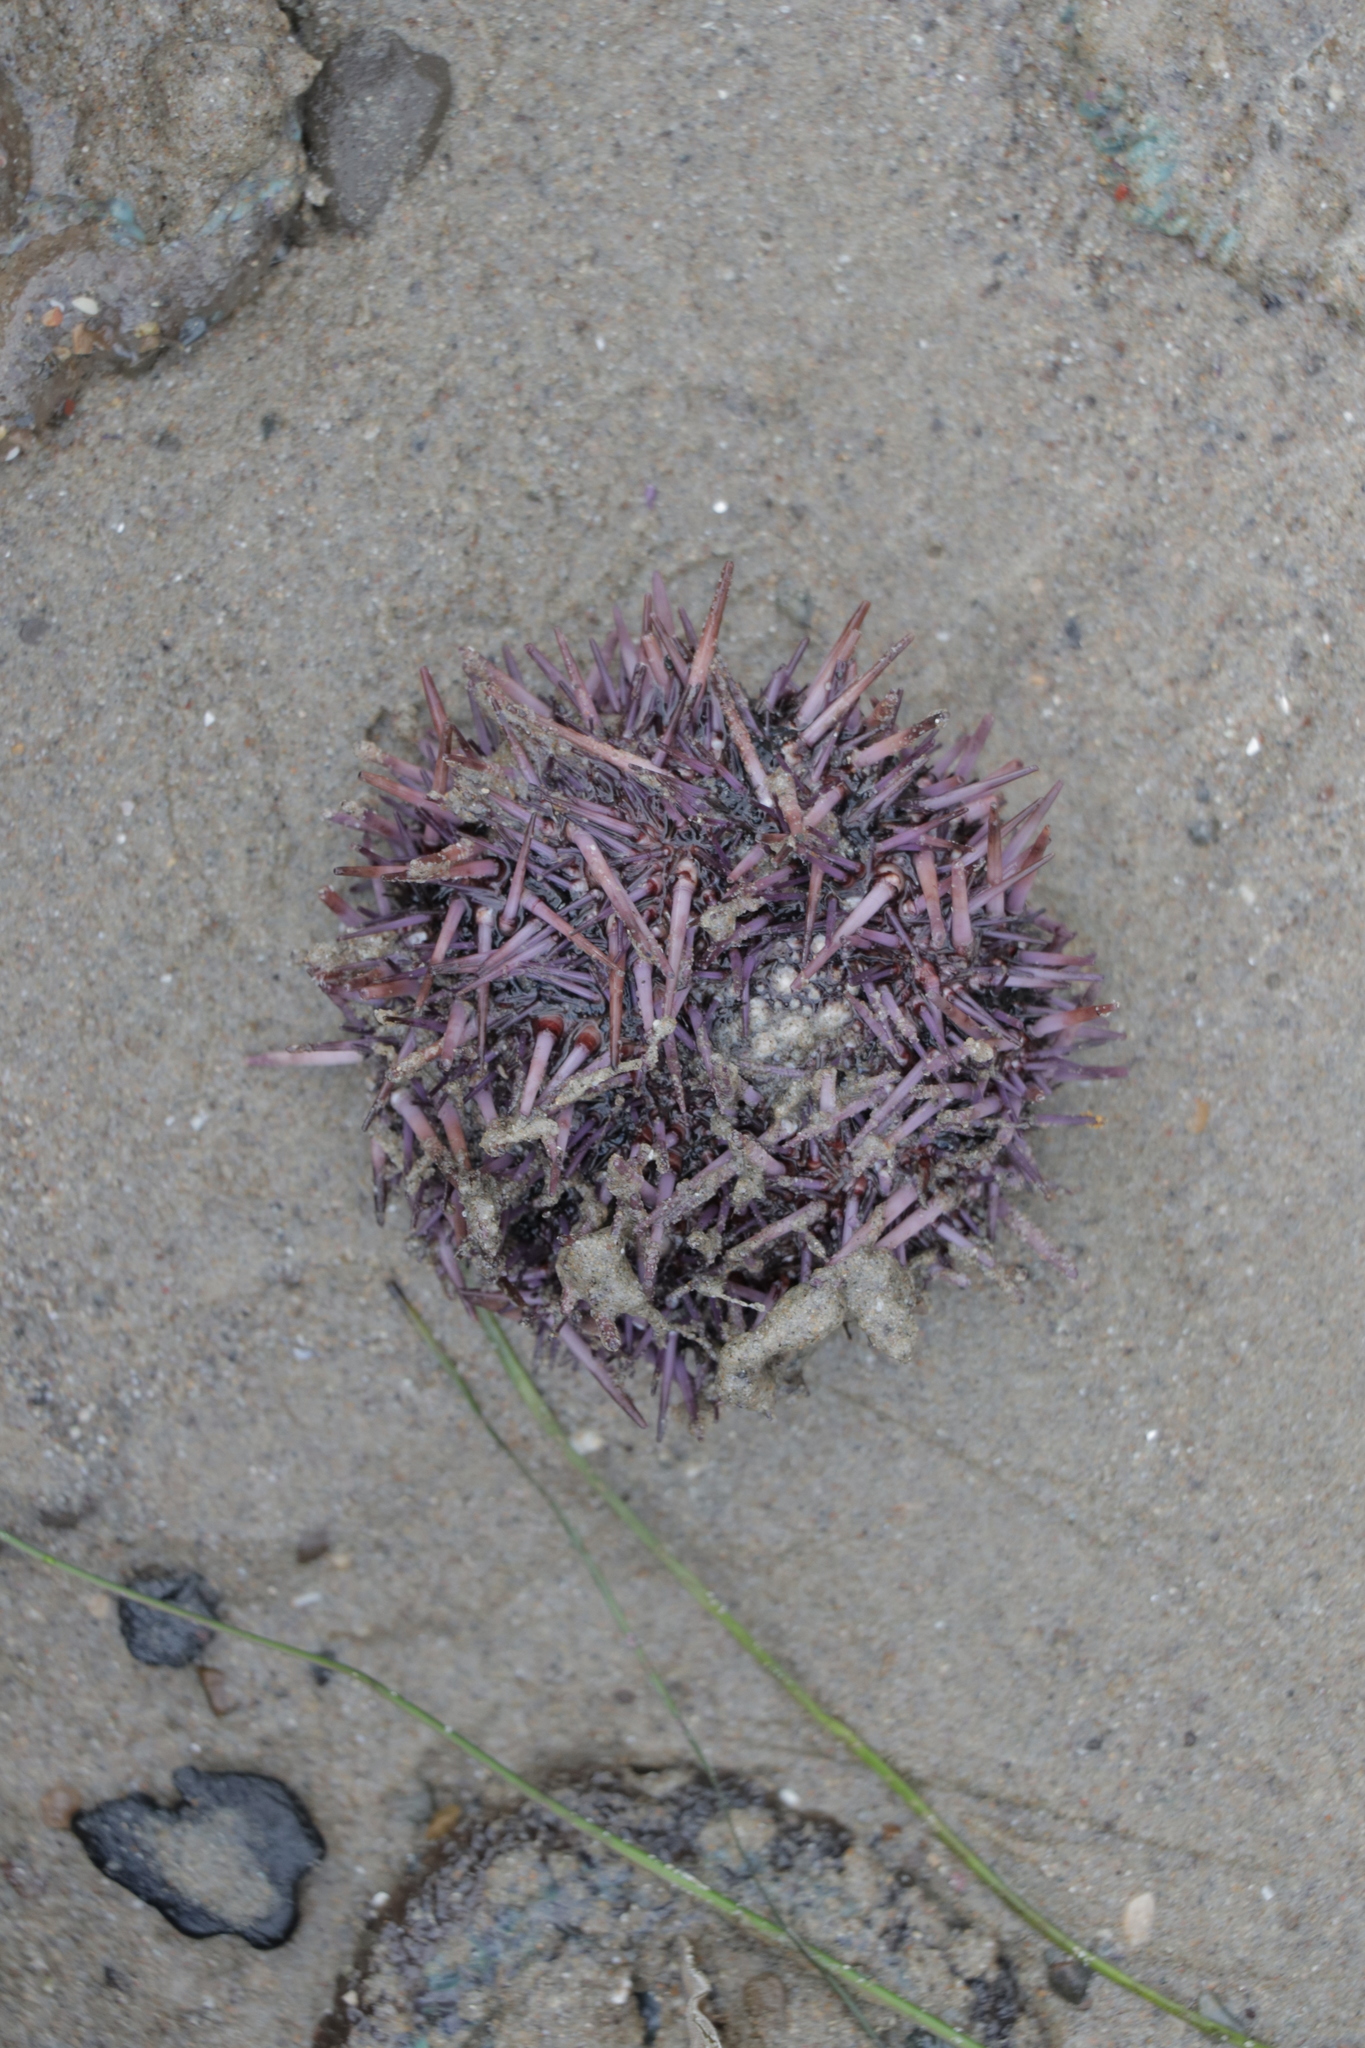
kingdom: Animalia
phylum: Echinodermata
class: Echinoidea
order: Camarodonta
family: Strongylocentrotidae
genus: Strongylocentrotus
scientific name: Strongylocentrotus purpuratus
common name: Purple sea urchin
